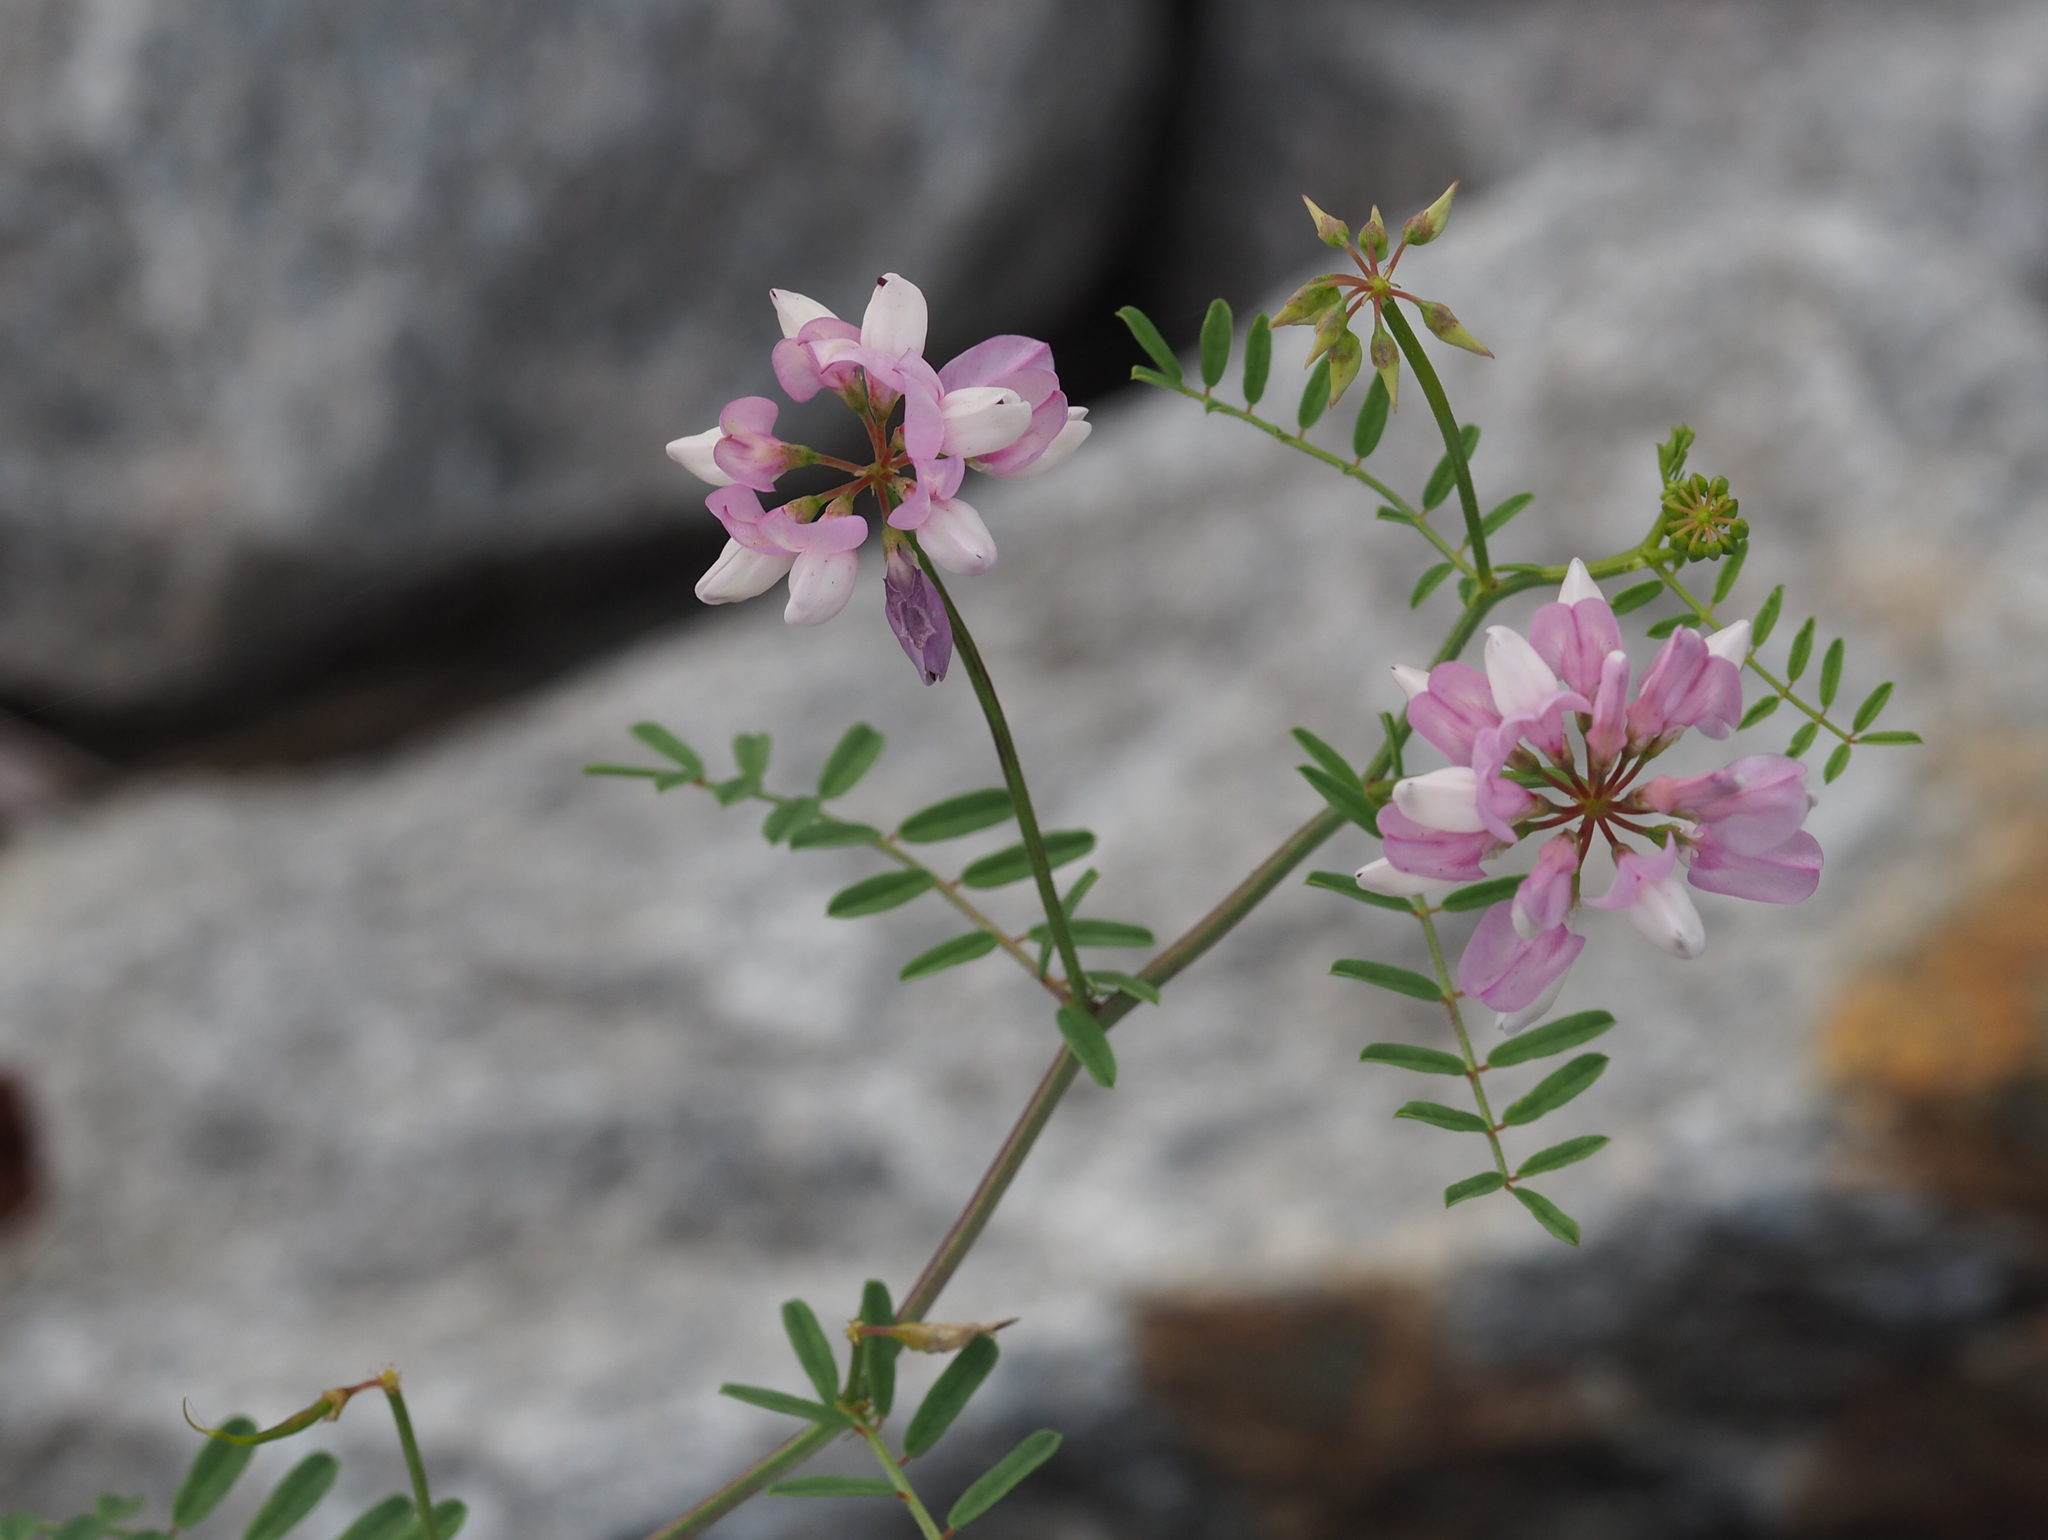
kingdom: Plantae
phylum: Tracheophyta
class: Magnoliopsida
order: Fabales
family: Fabaceae
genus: Coronilla
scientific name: Coronilla varia
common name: Crownvetch
